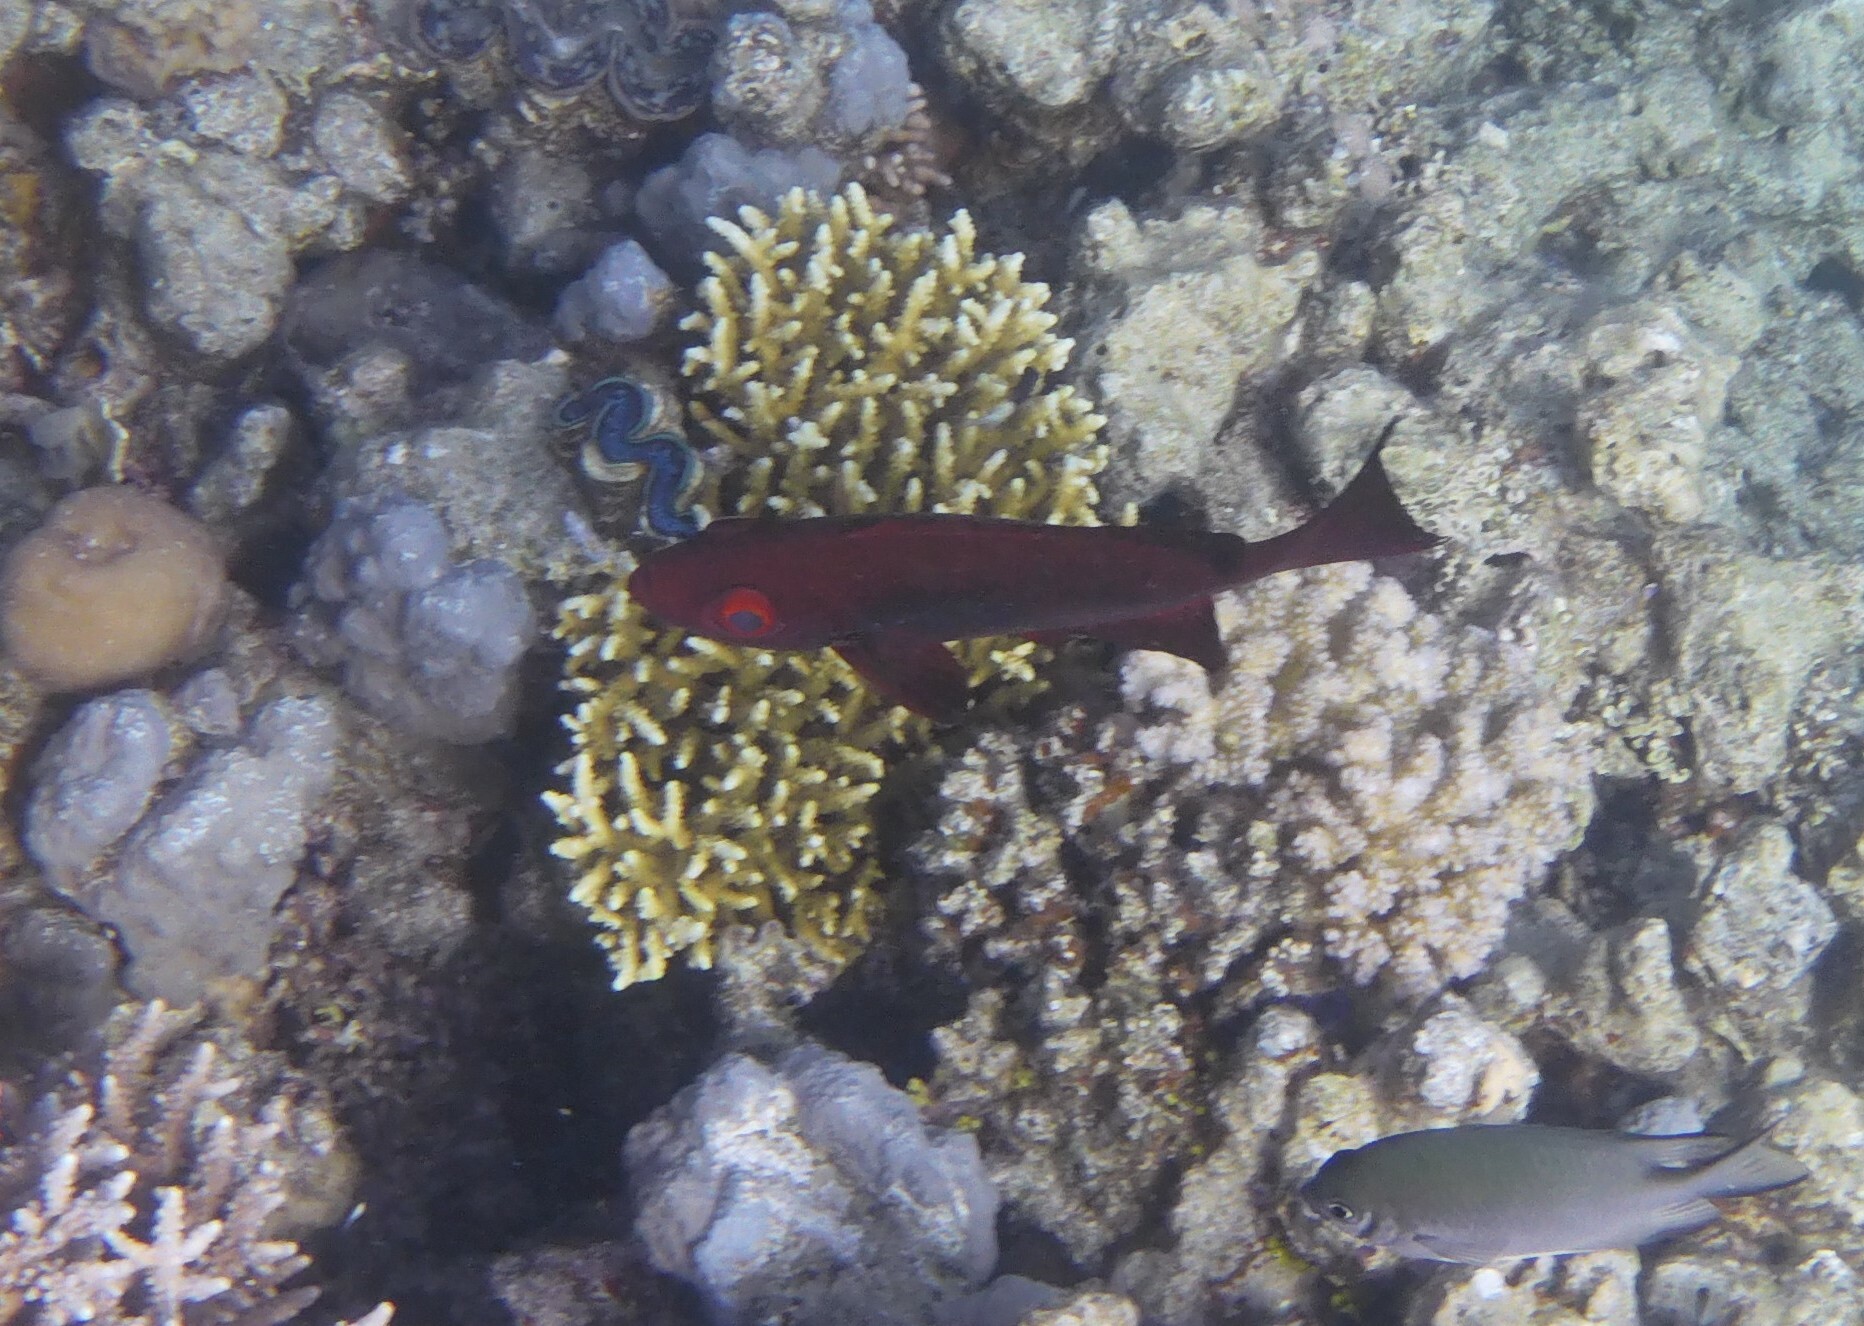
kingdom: Animalia
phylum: Chordata
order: Perciformes
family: Priacanthidae
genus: Priacanthus
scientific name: Priacanthus hamrur
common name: Moontail bullseye
